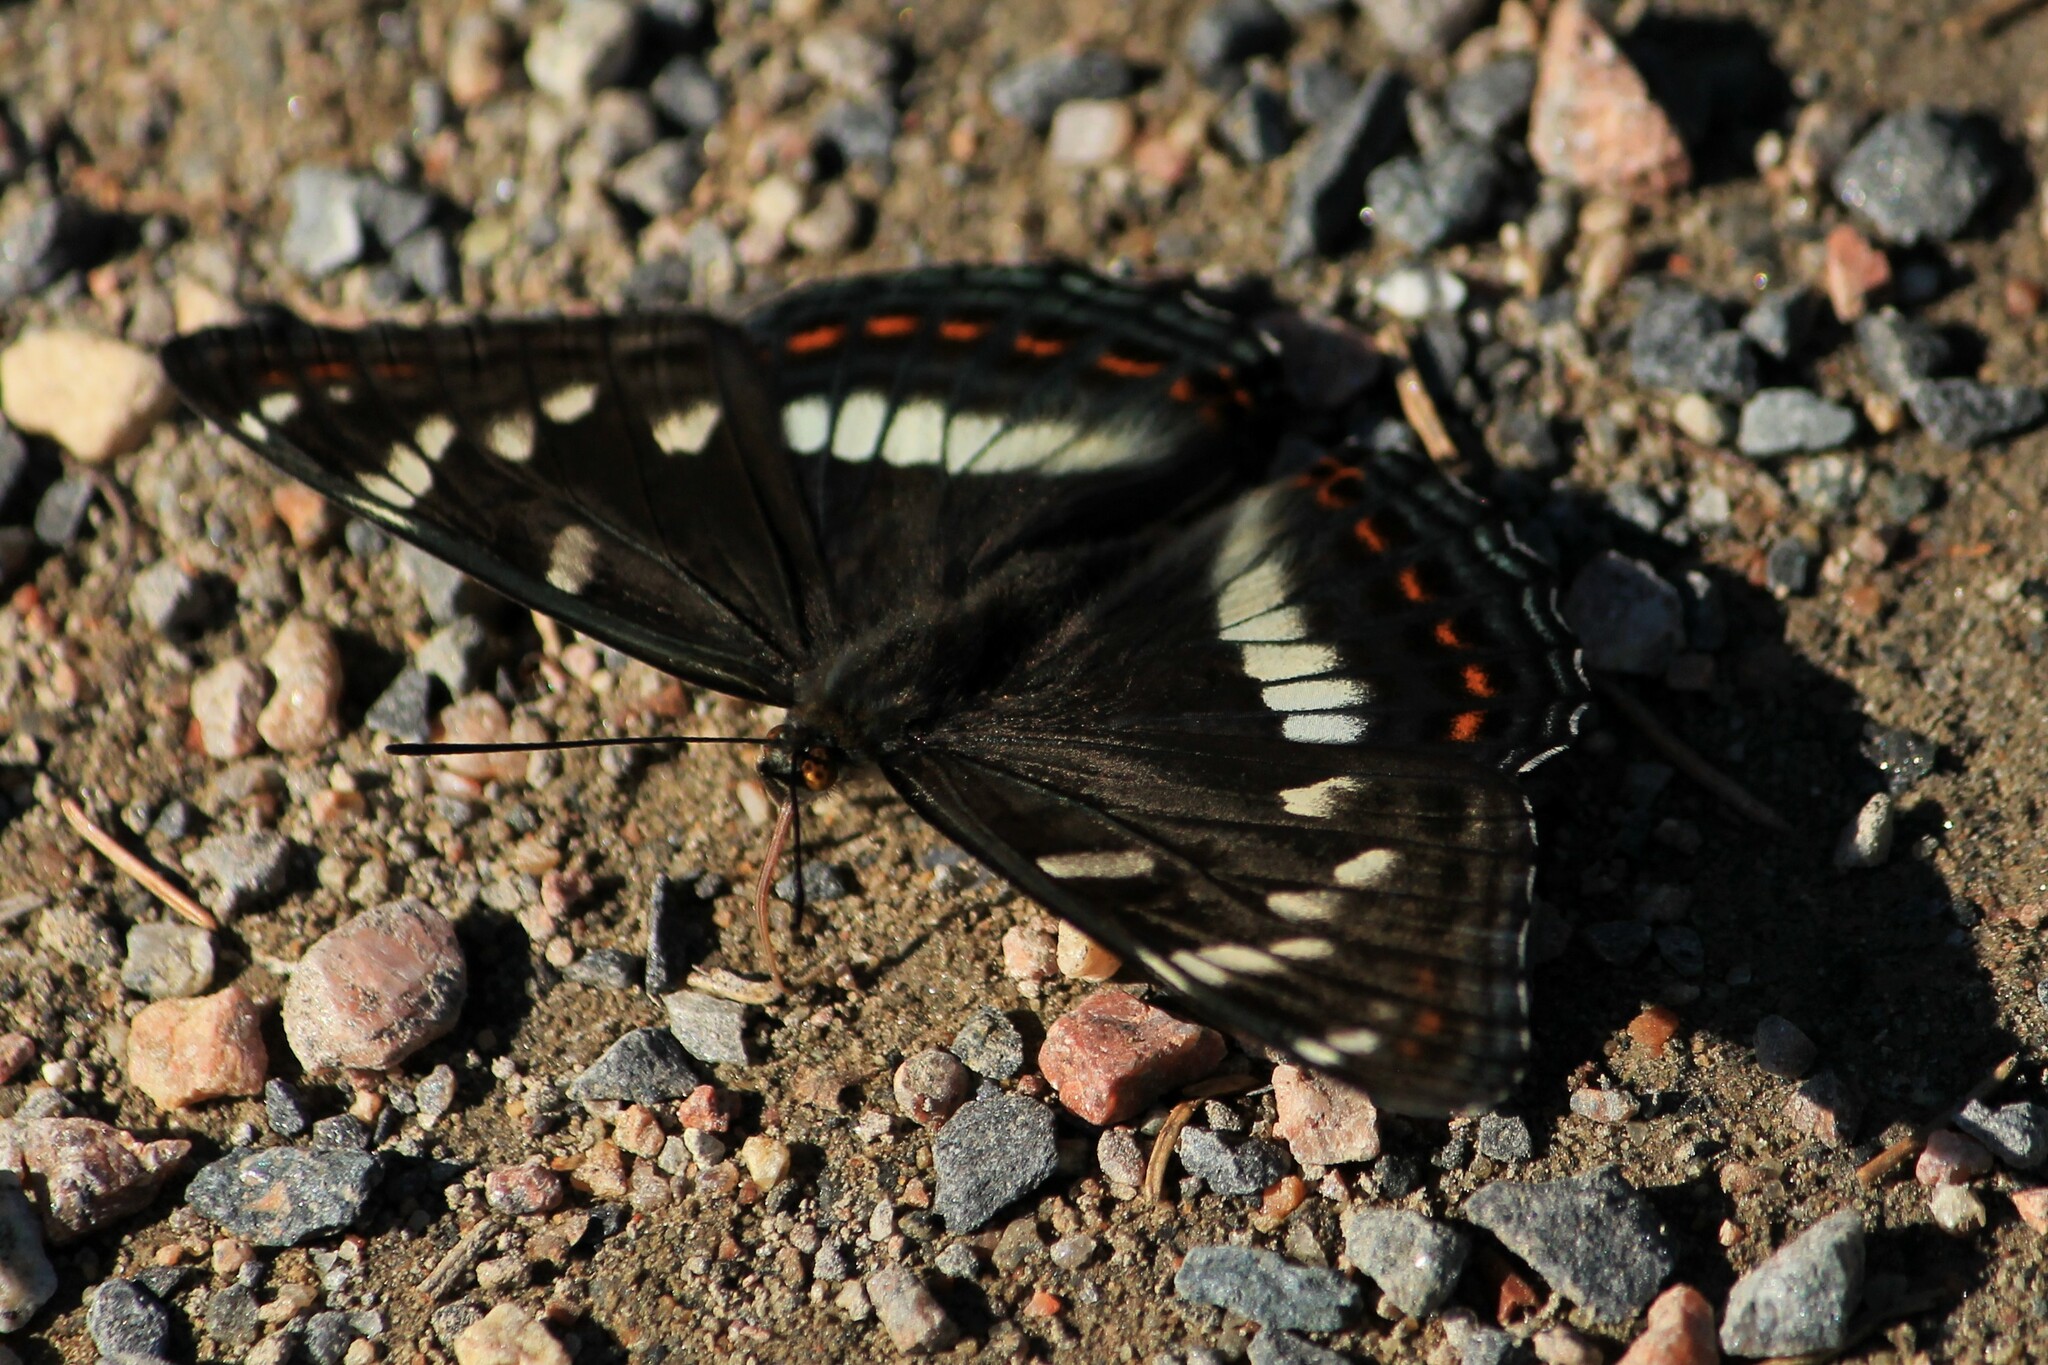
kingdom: Animalia
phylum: Arthropoda
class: Insecta
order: Lepidoptera
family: Nymphalidae
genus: Limenitis
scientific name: Limenitis populi
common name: Poplar admiral
